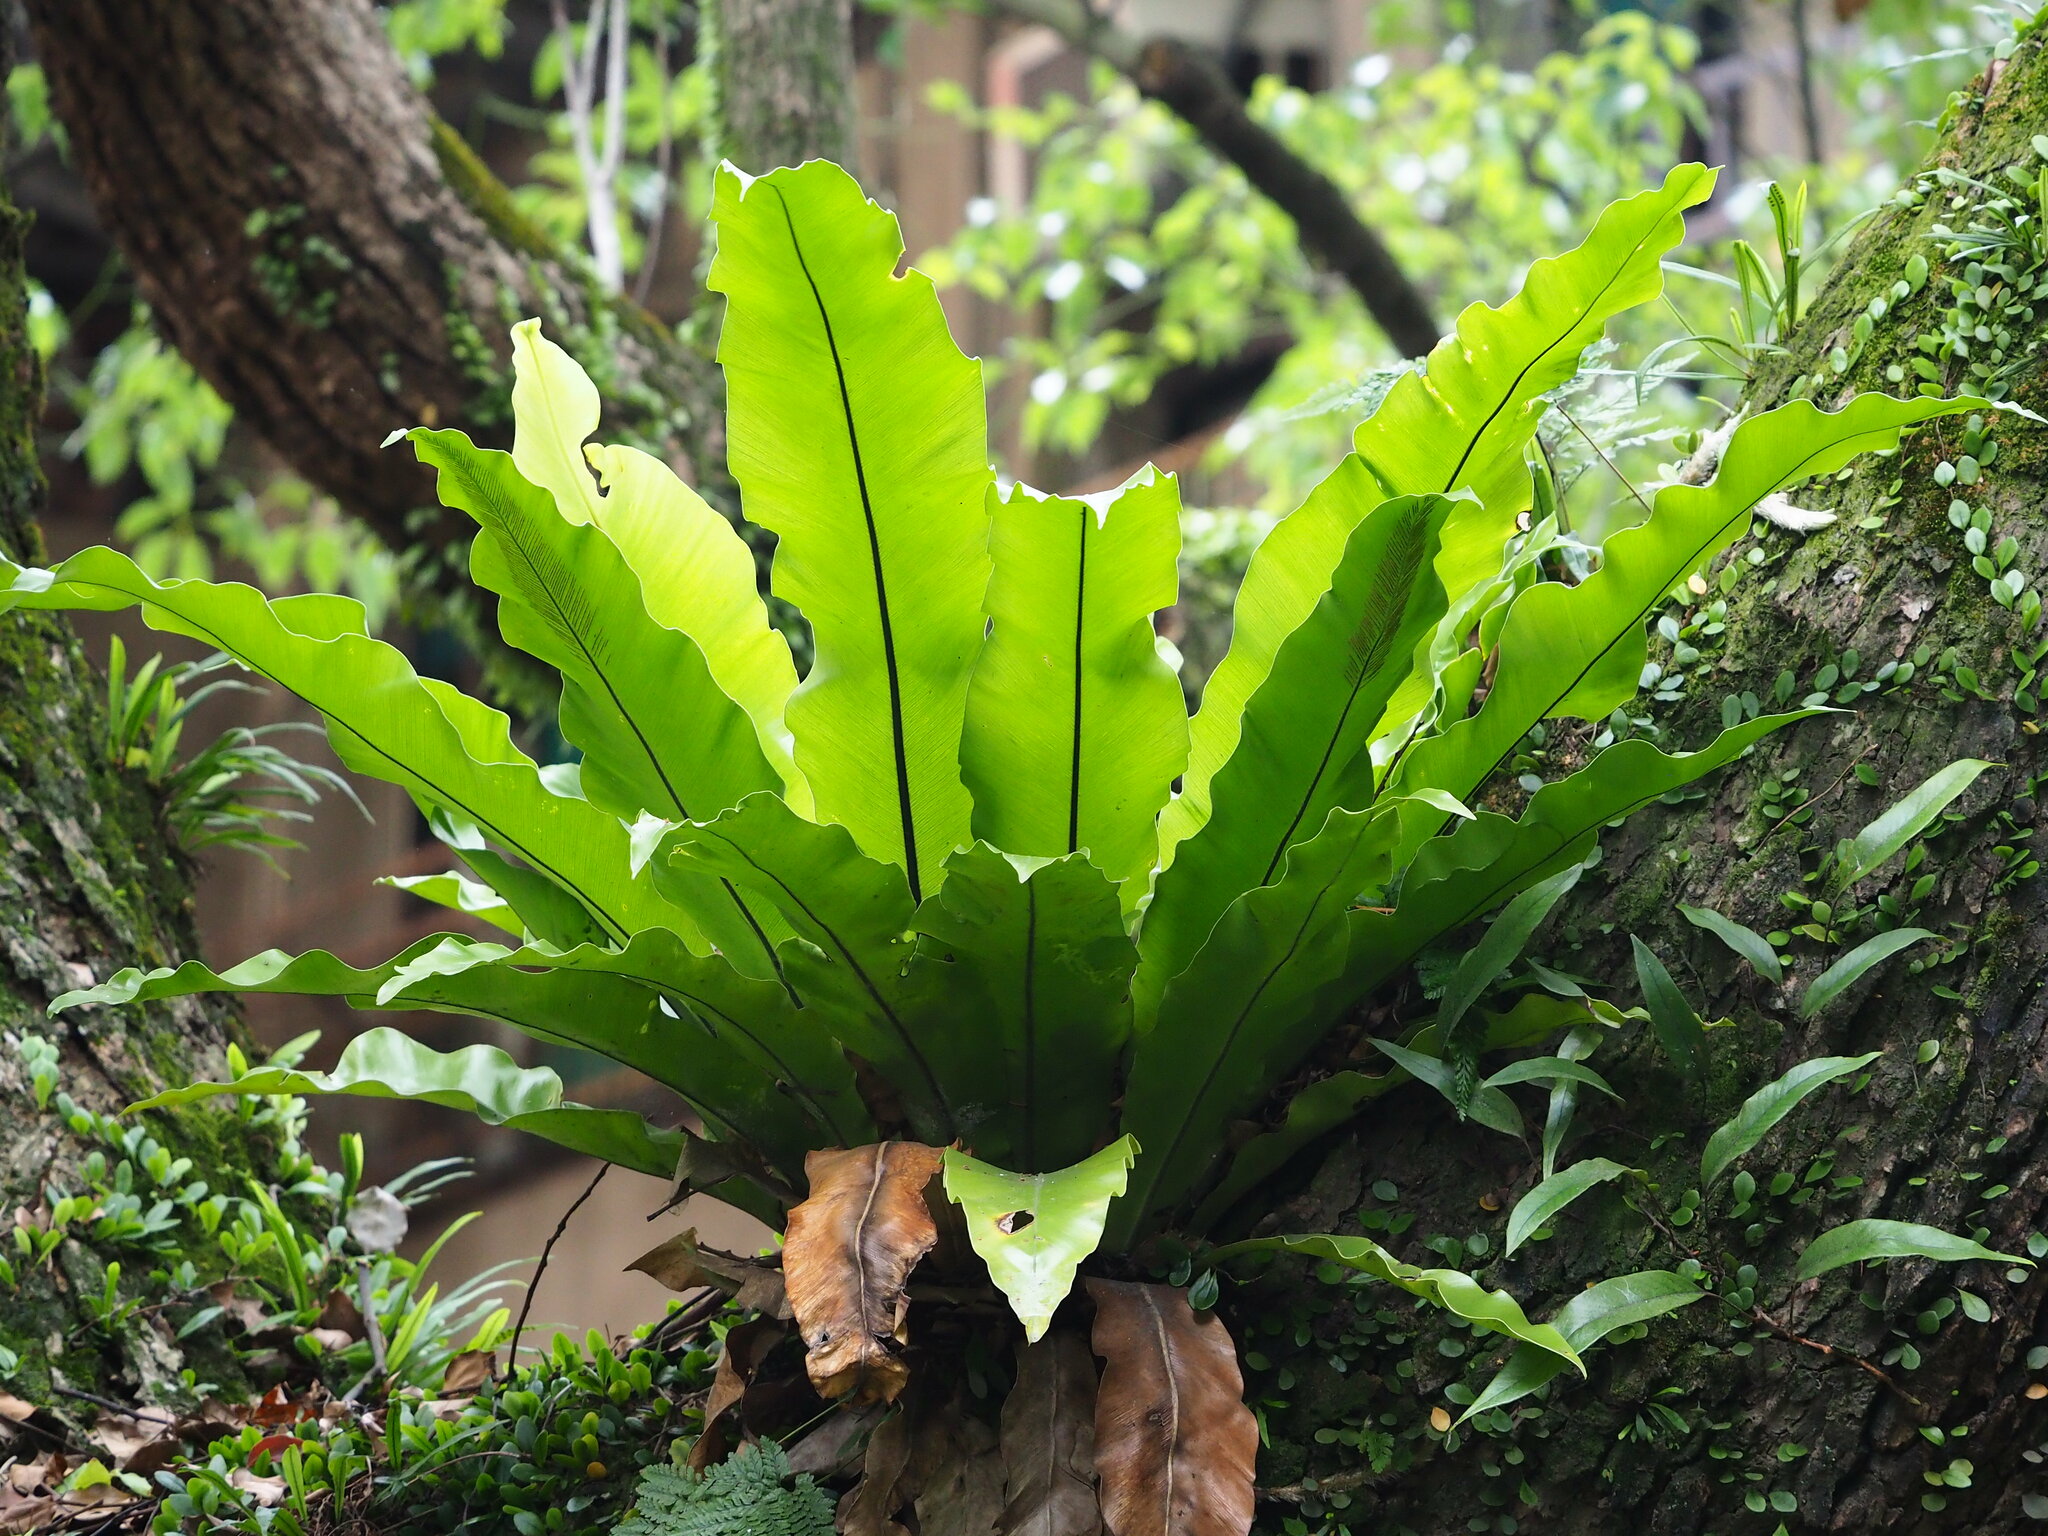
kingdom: Plantae
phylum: Tracheophyta
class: Polypodiopsida
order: Polypodiales
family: Aspleniaceae
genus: Asplenium
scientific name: Asplenium nidus
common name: Bird's-nest fern
